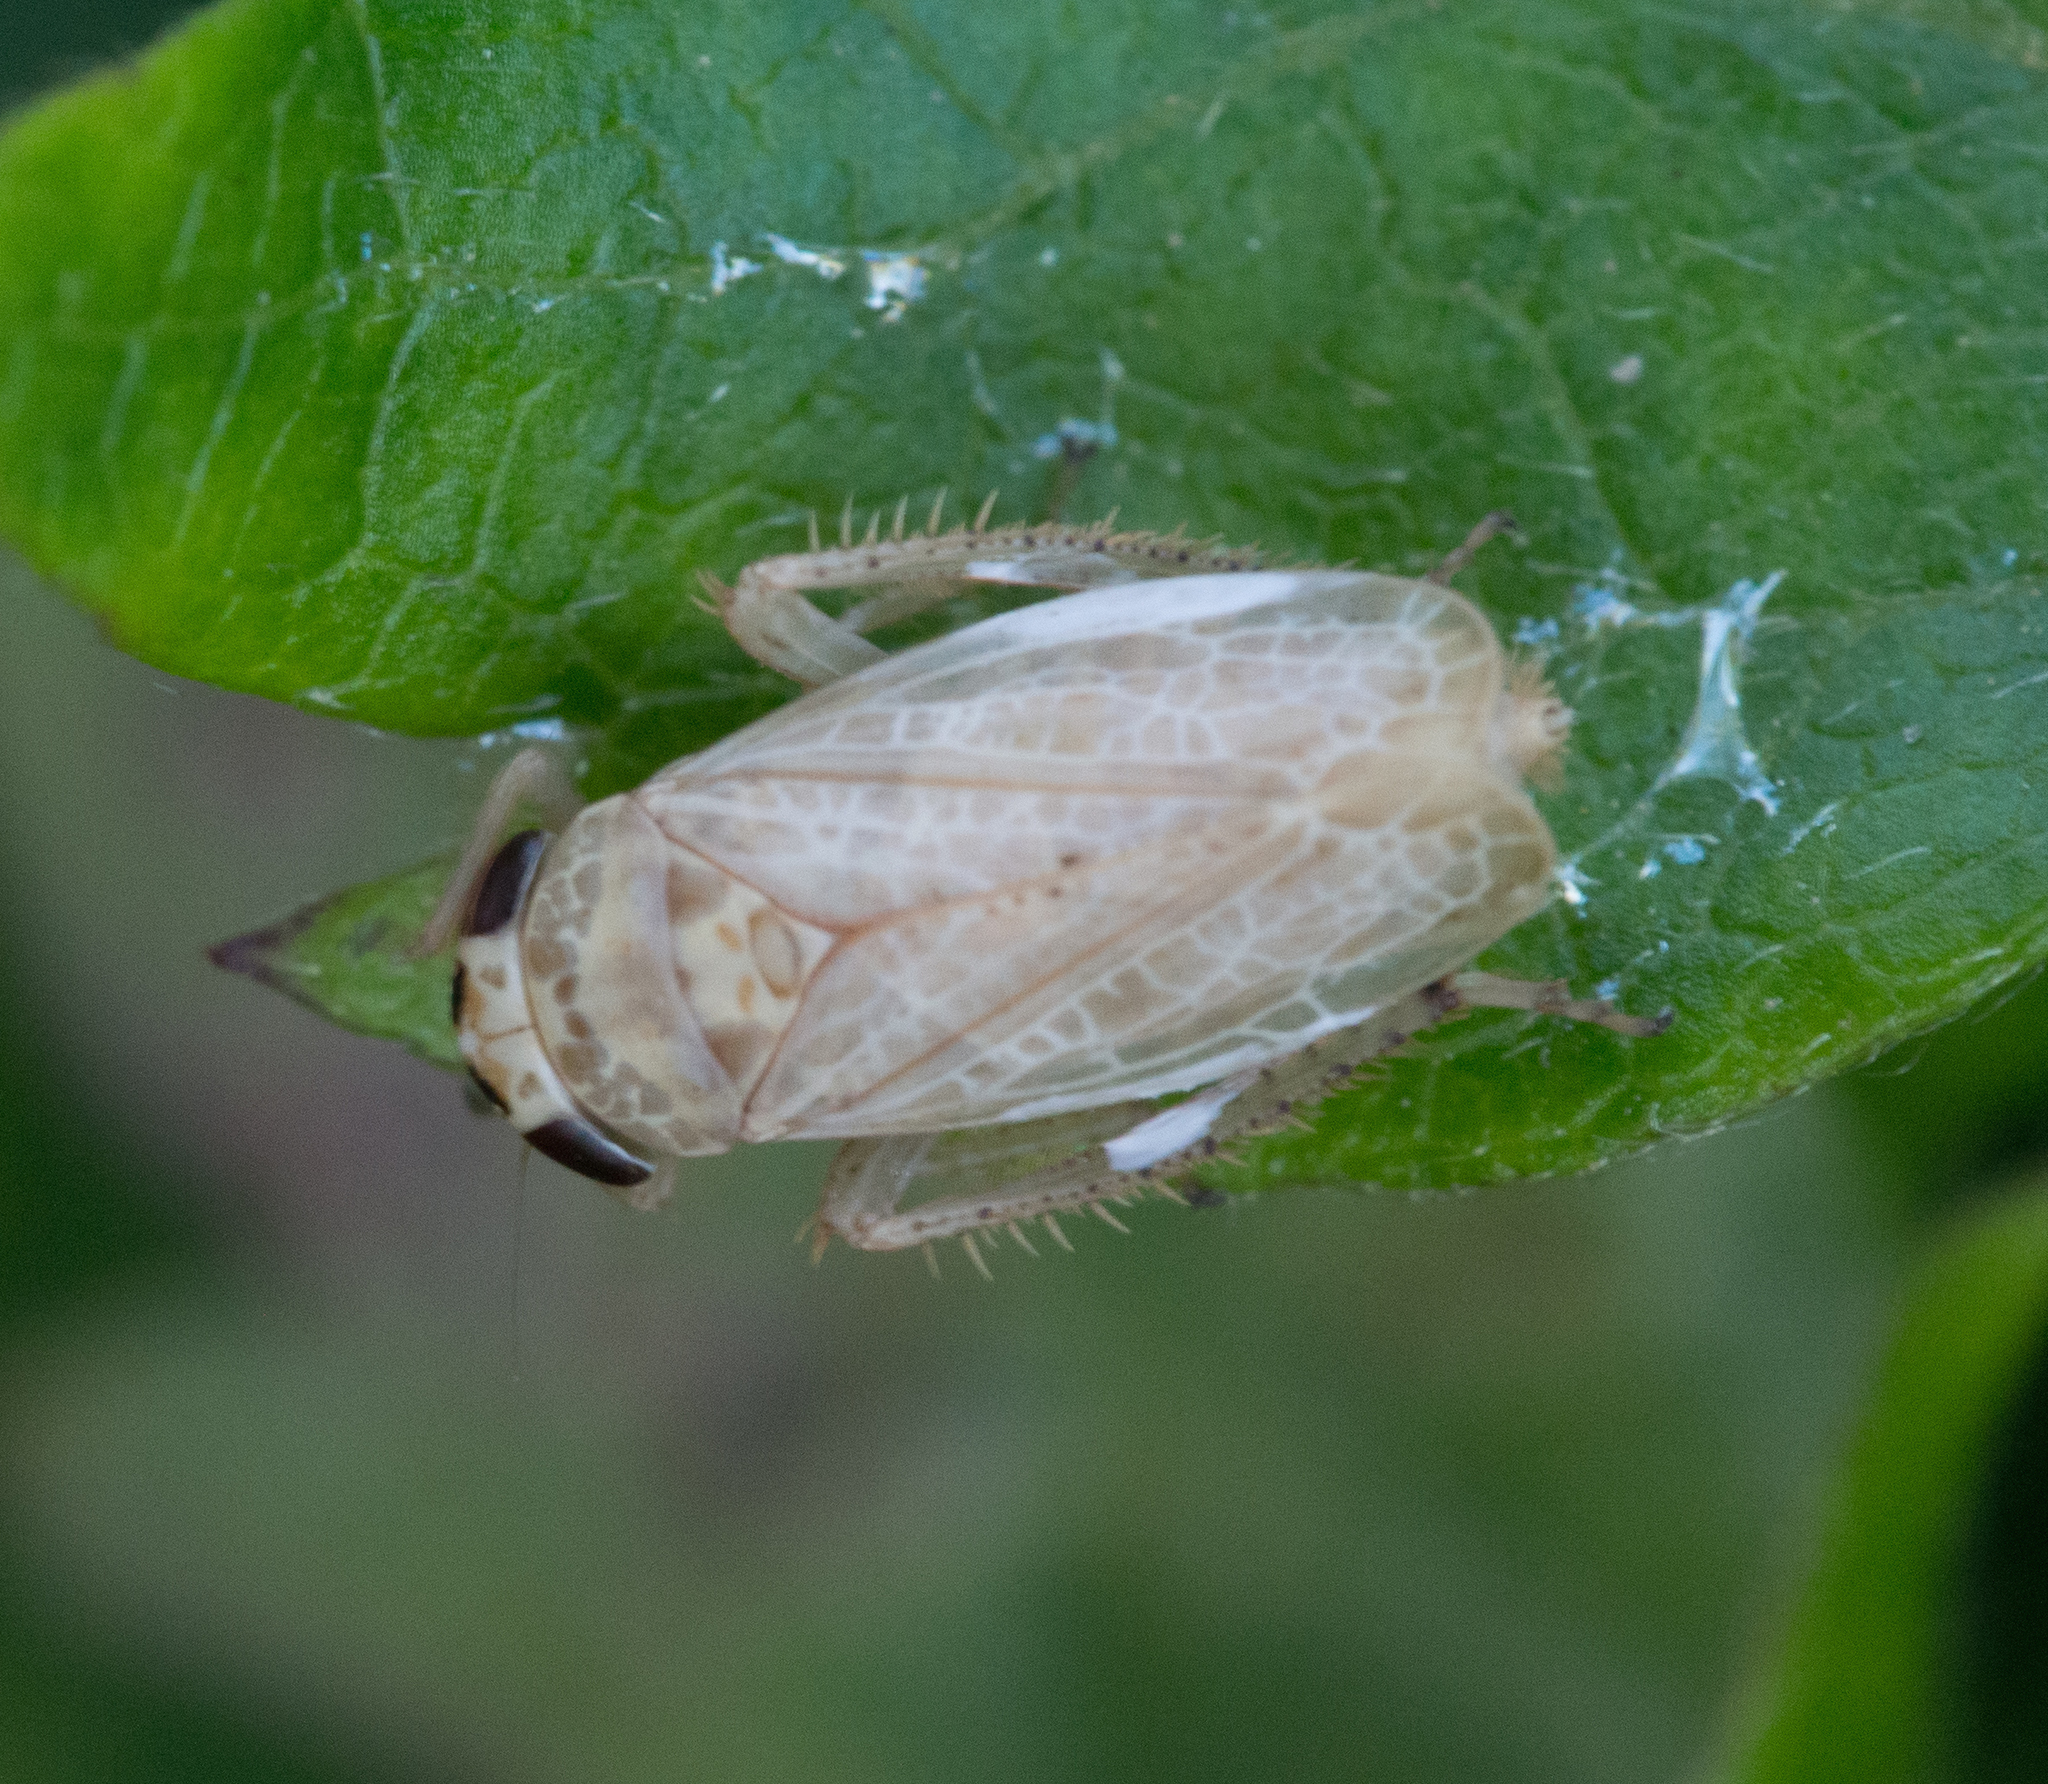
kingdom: Animalia
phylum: Arthropoda
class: Insecta
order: Hemiptera
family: Cicadellidae
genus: Allygidius
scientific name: Allygidius abbreviatus
